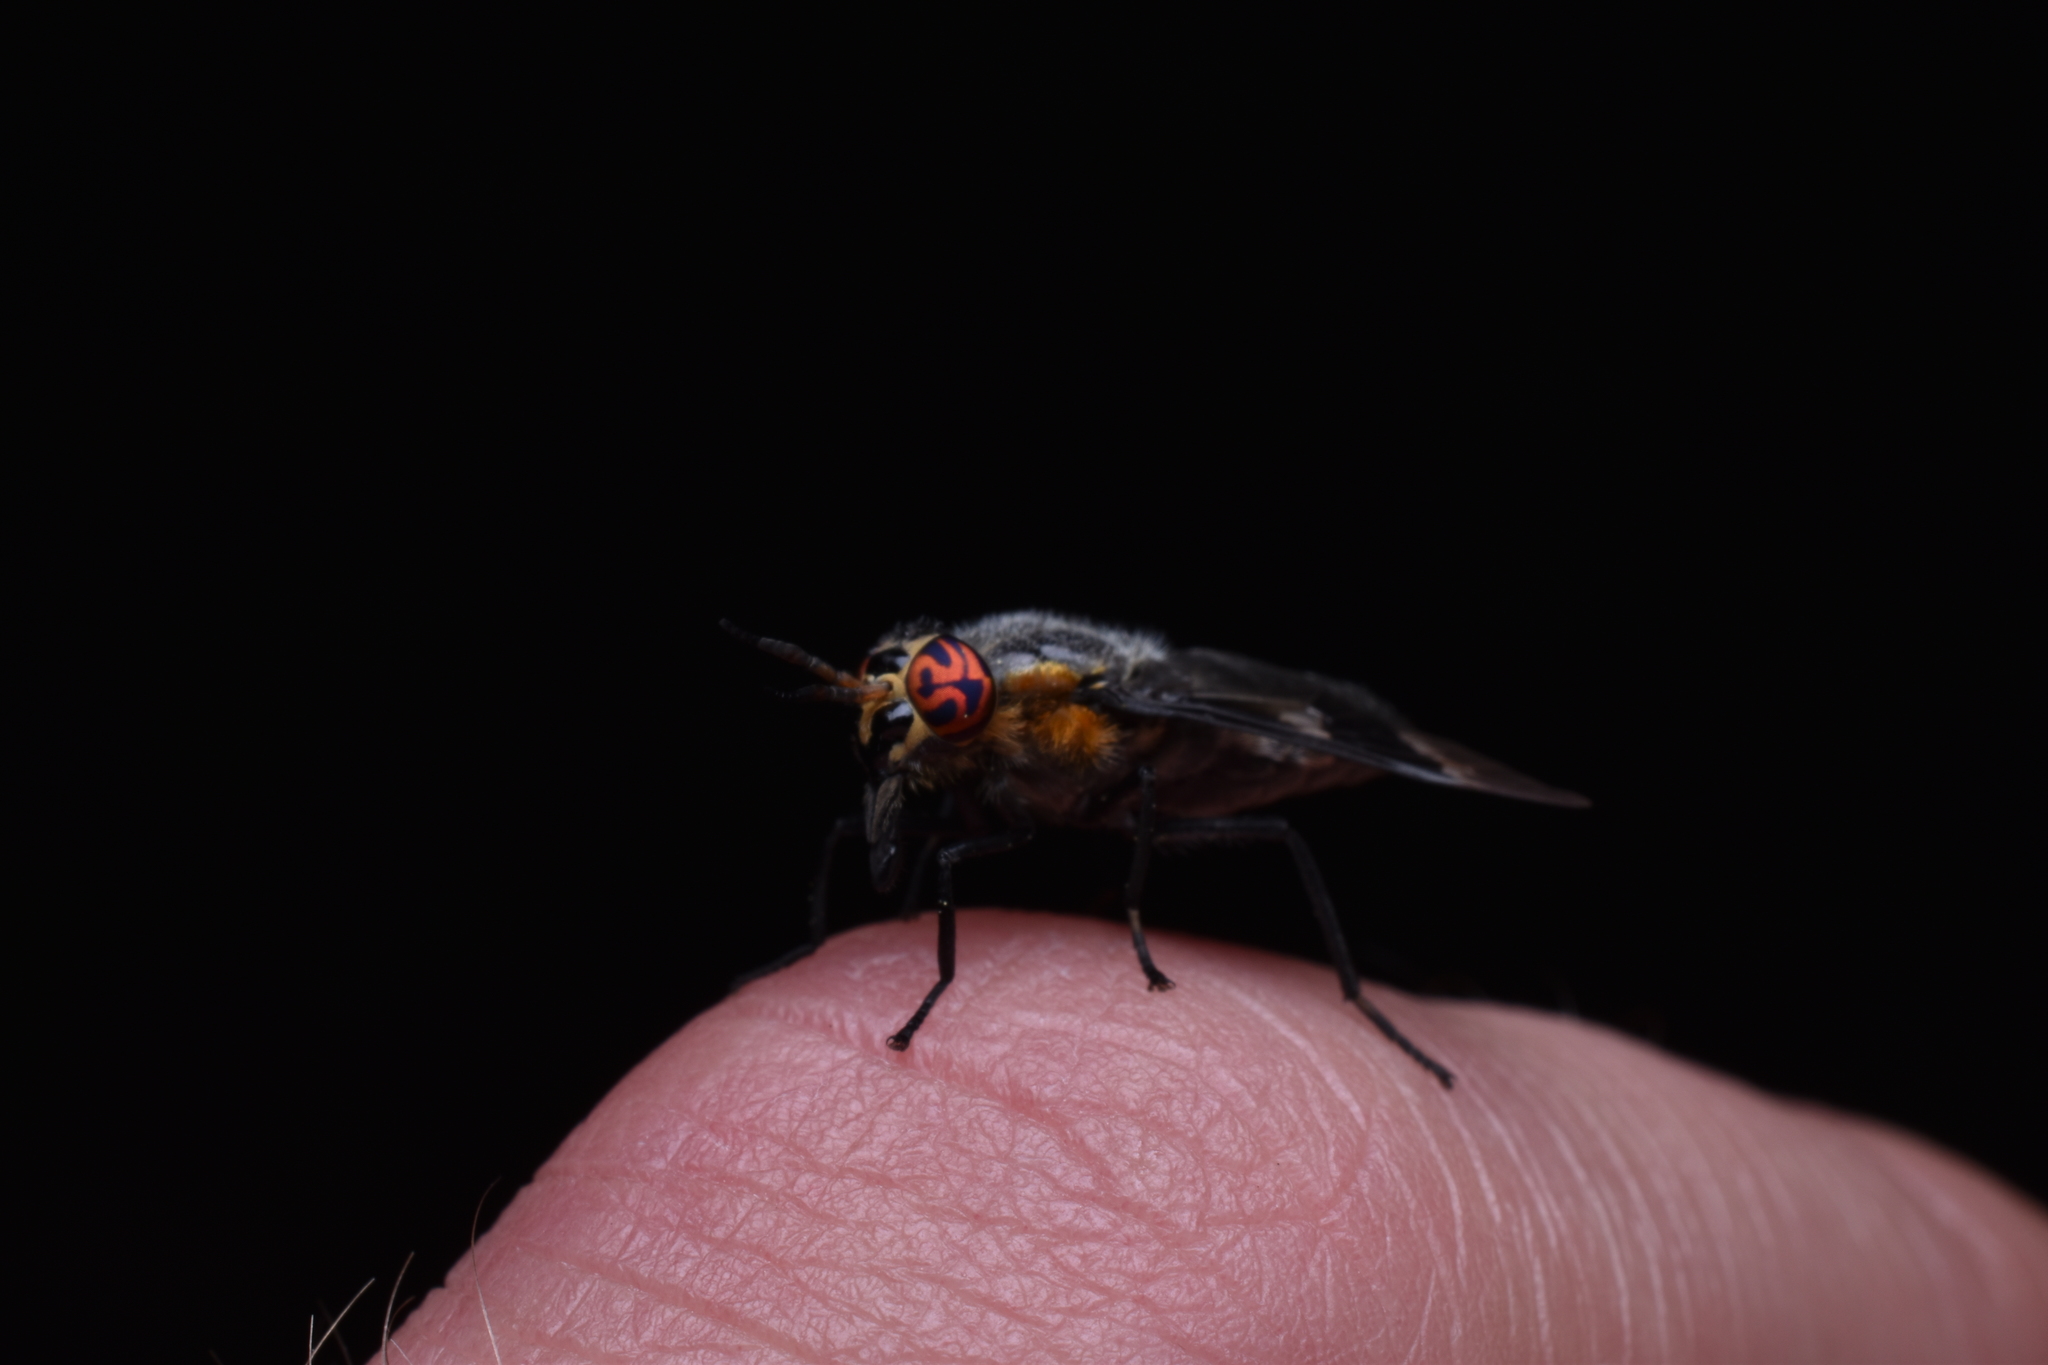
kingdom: Animalia
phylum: Arthropoda
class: Insecta
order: Diptera
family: Tabanidae
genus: Chrysops
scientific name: Chrysops cincticornis
